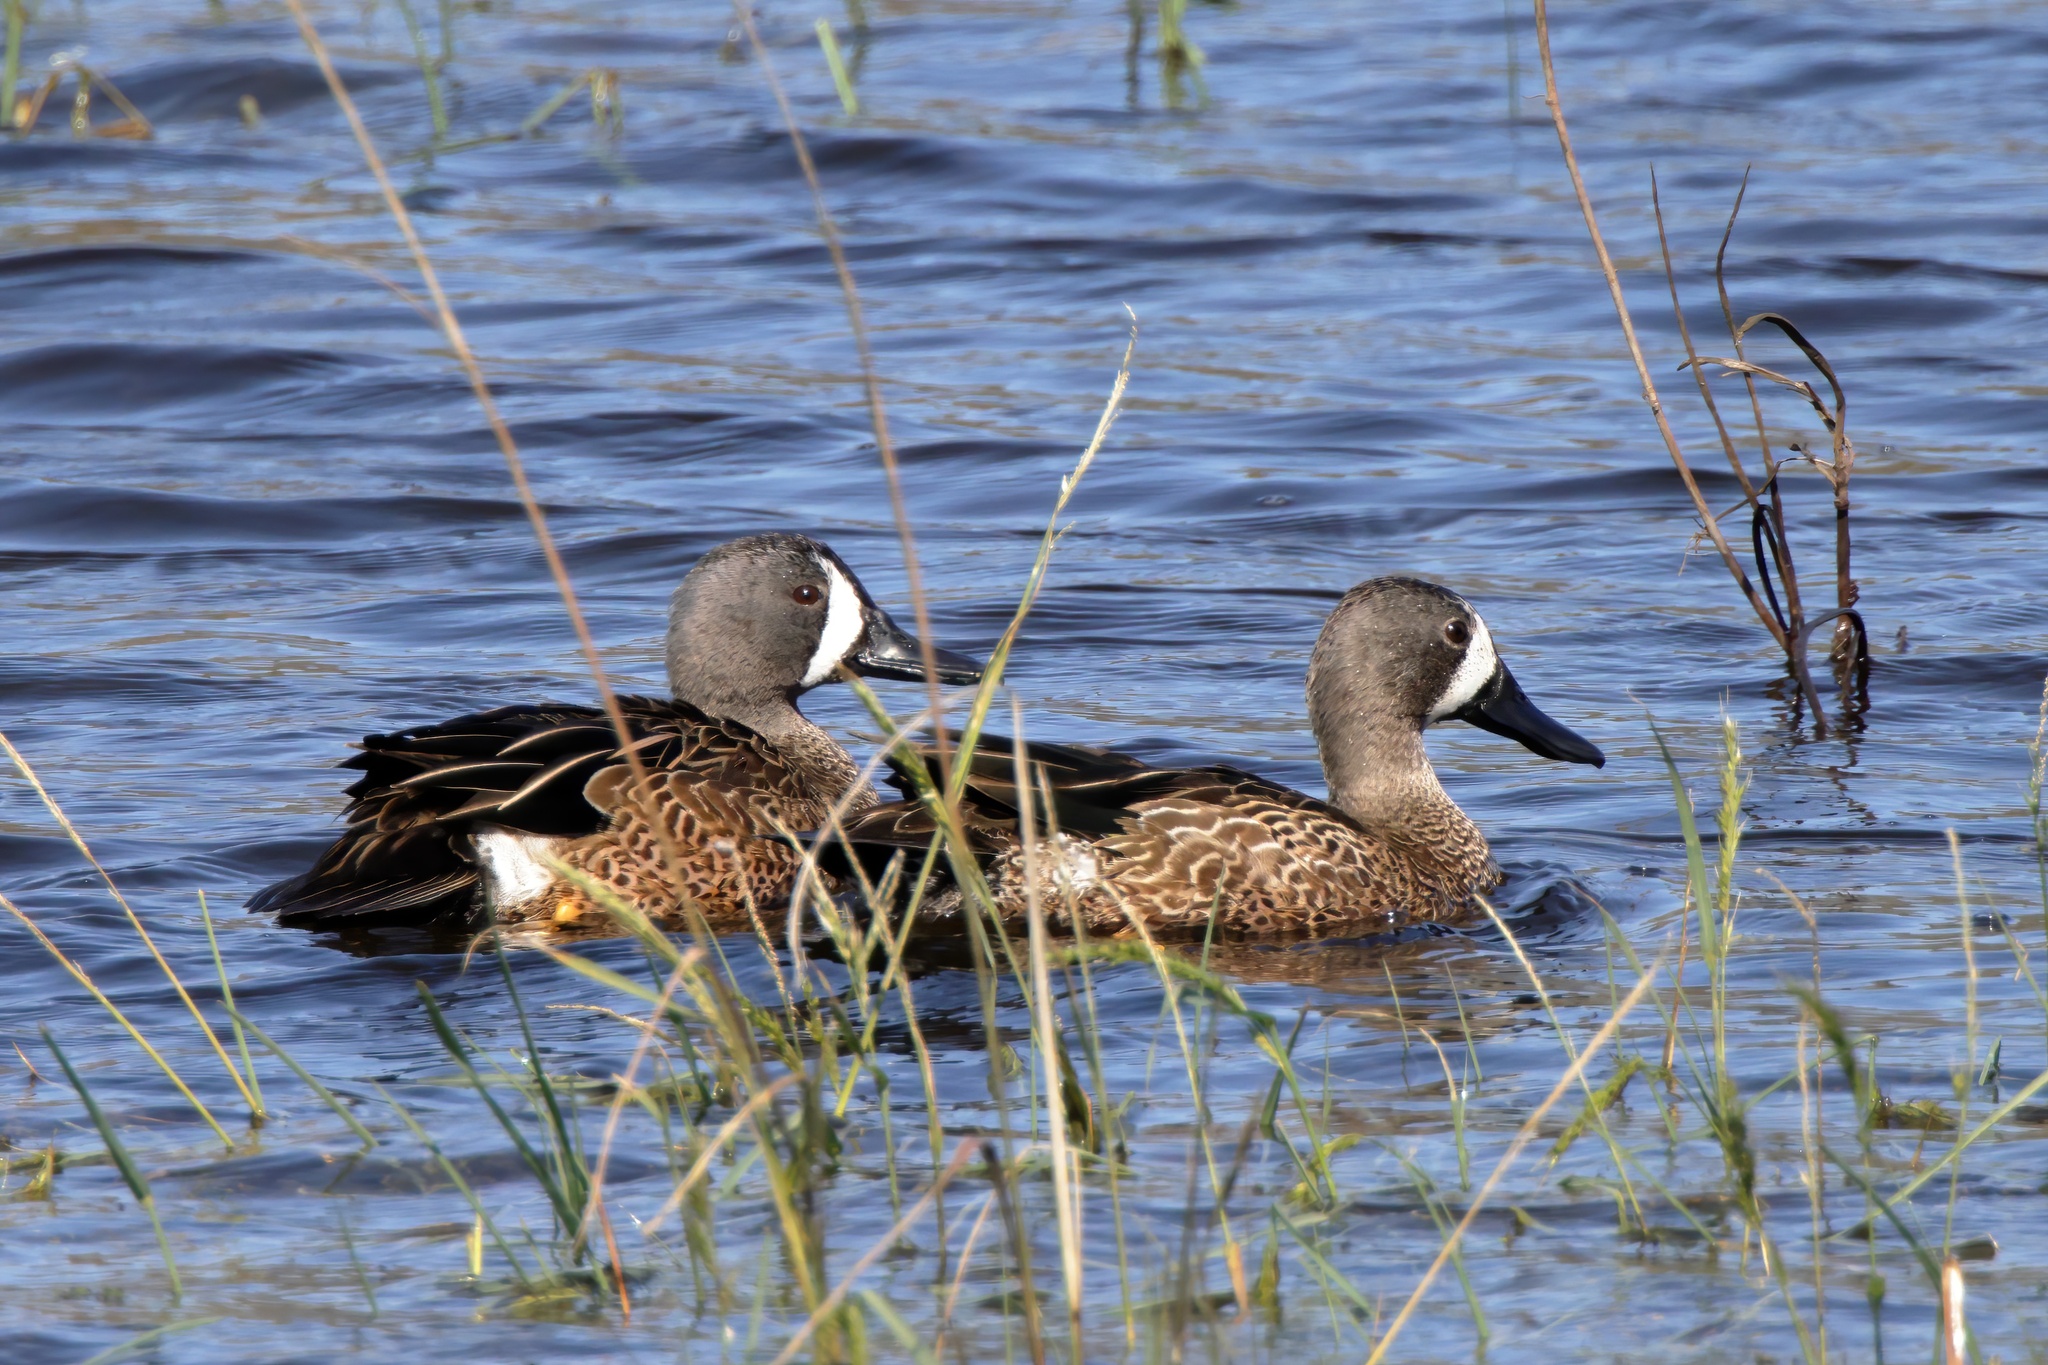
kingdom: Animalia
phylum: Chordata
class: Aves
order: Anseriformes
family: Anatidae
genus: Spatula
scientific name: Spatula discors
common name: Blue-winged teal
